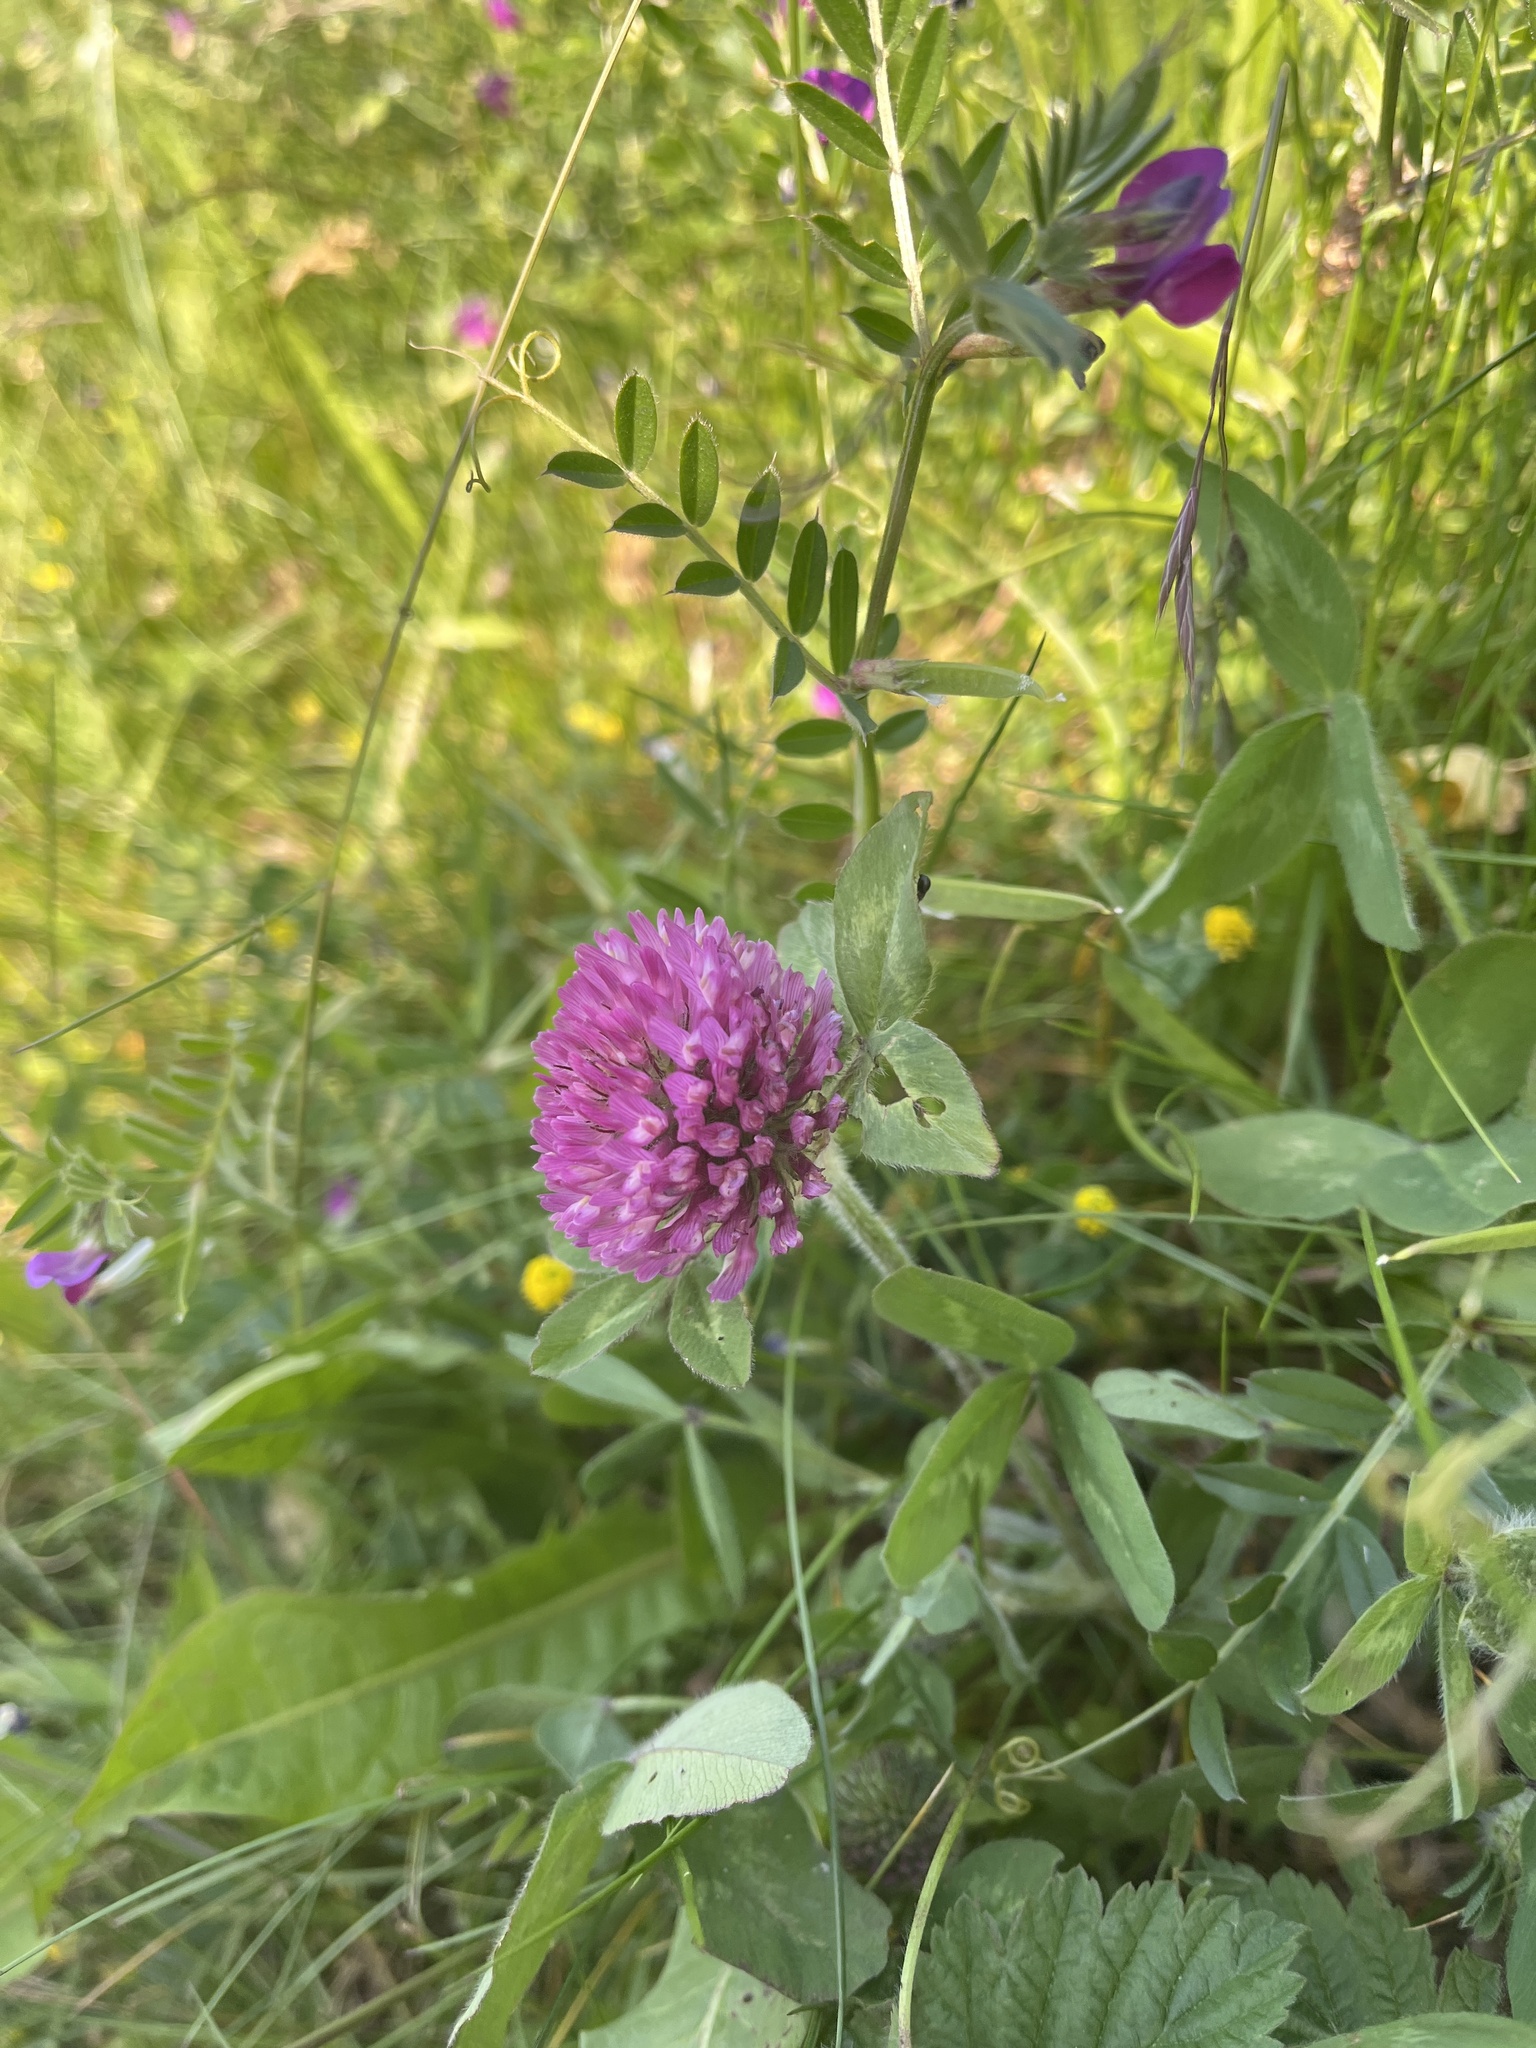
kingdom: Plantae
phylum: Tracheophyta
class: Magnoliopsida
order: Fabales
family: Fabaceae
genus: Trifolium
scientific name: Trifolium pratense
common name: Red clover
